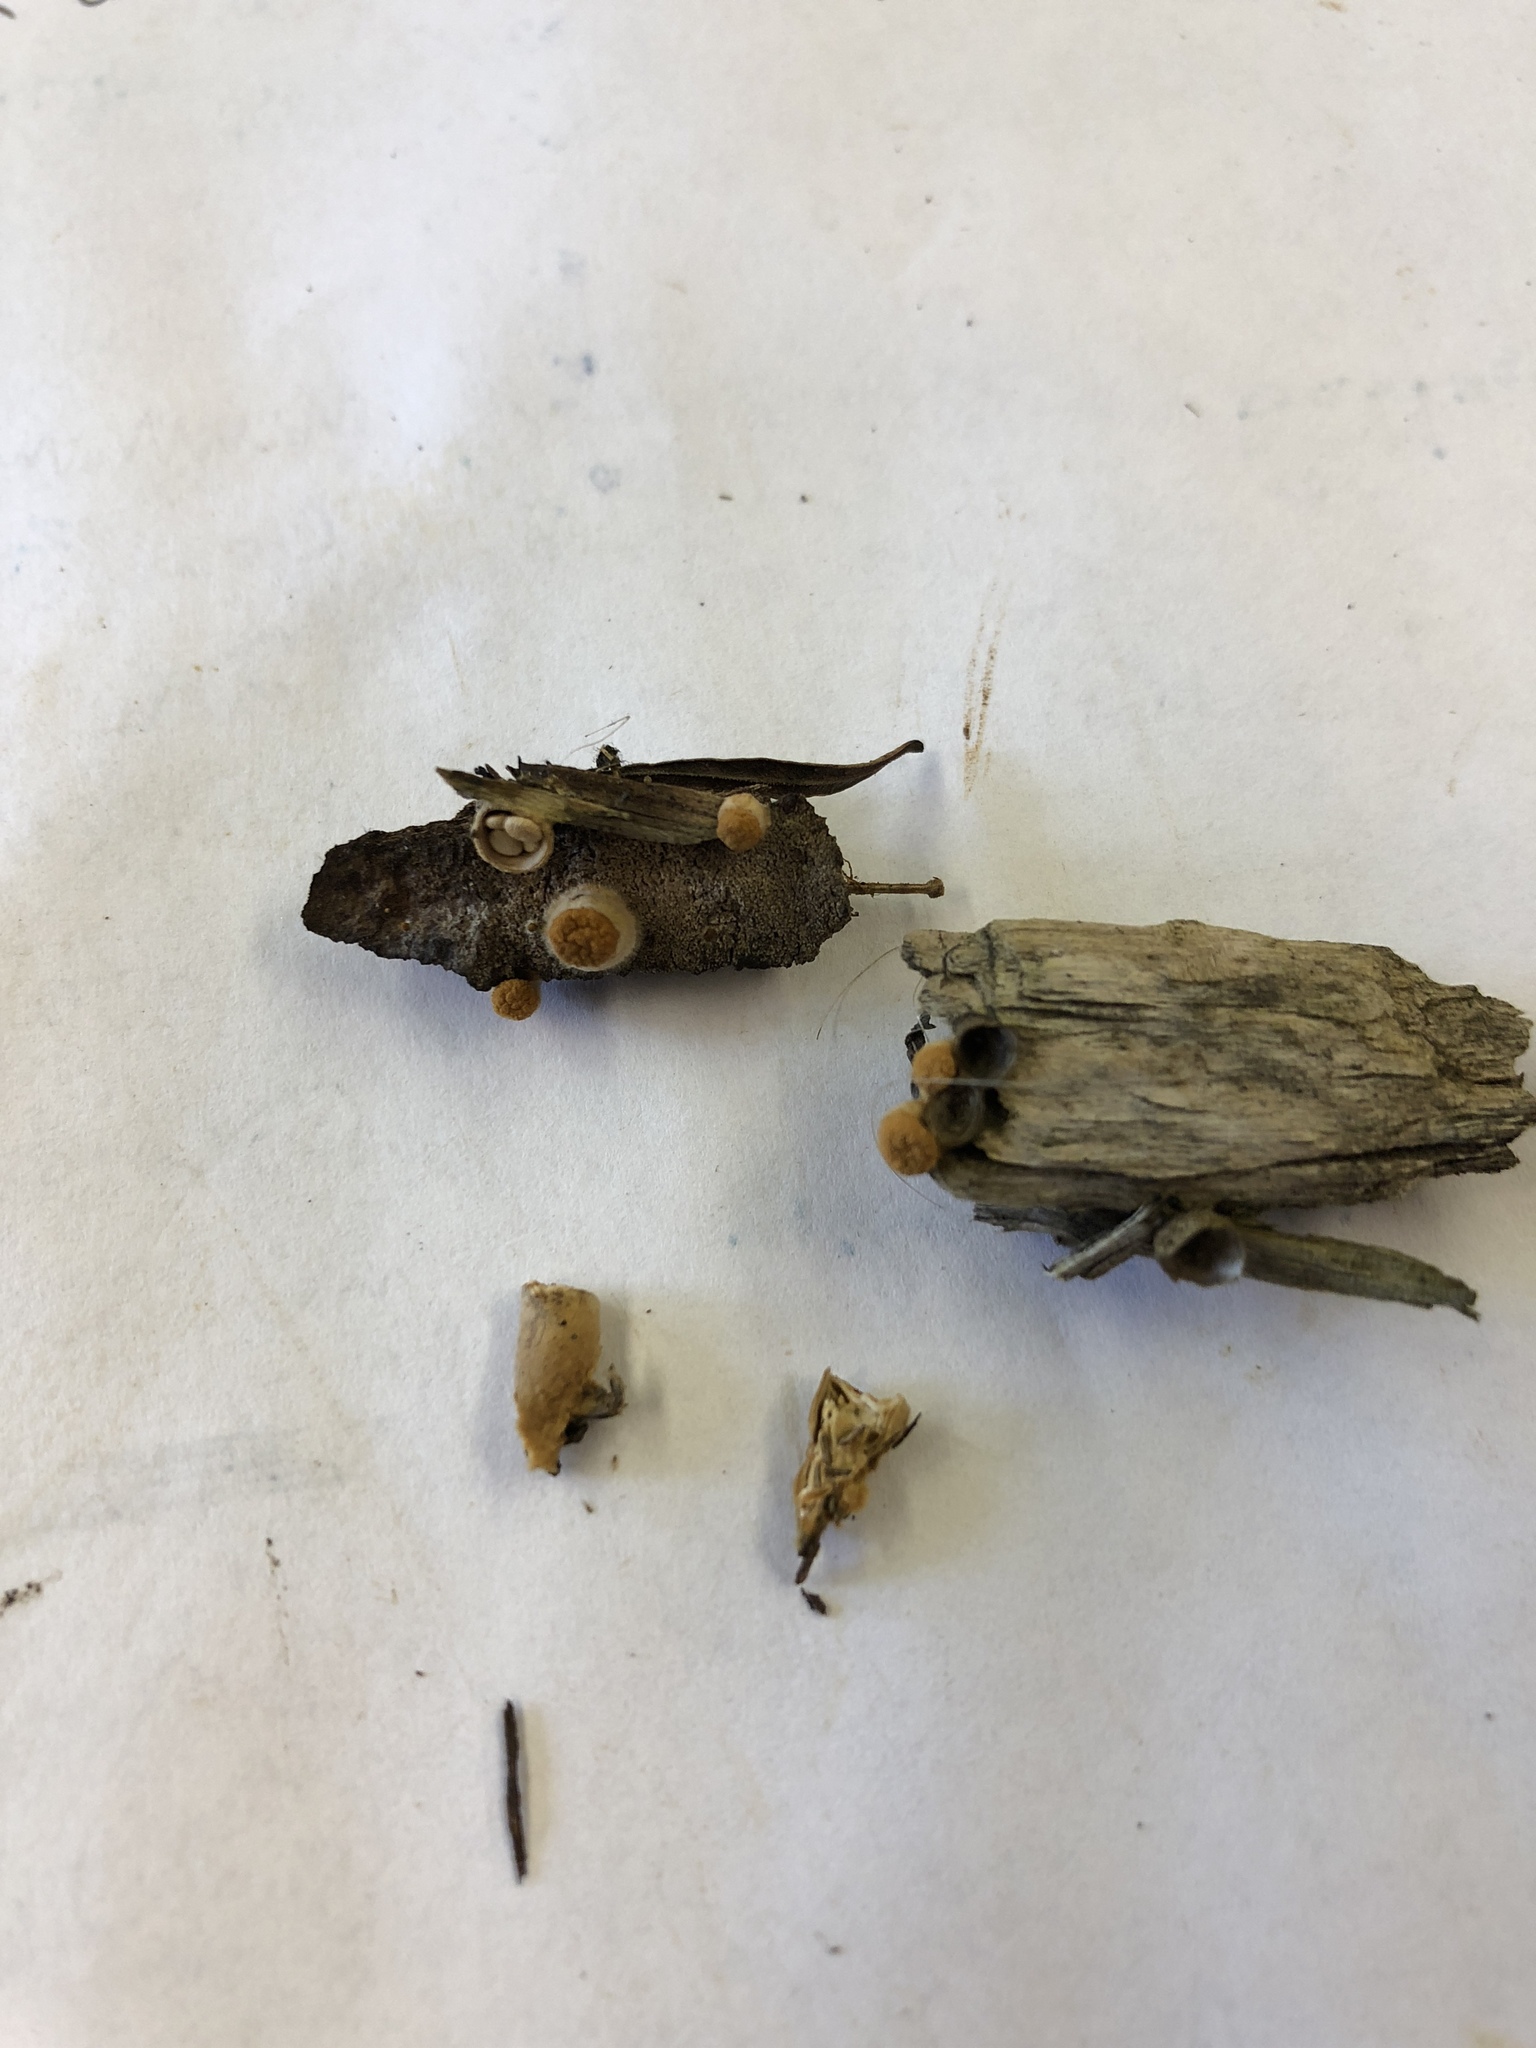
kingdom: Fungi
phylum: Basidiomycota
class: Agaricomycetes
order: Agaricales
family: Nidulariaceae
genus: Crucibulum
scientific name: Crucibulum laeve
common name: Common bird's nest
